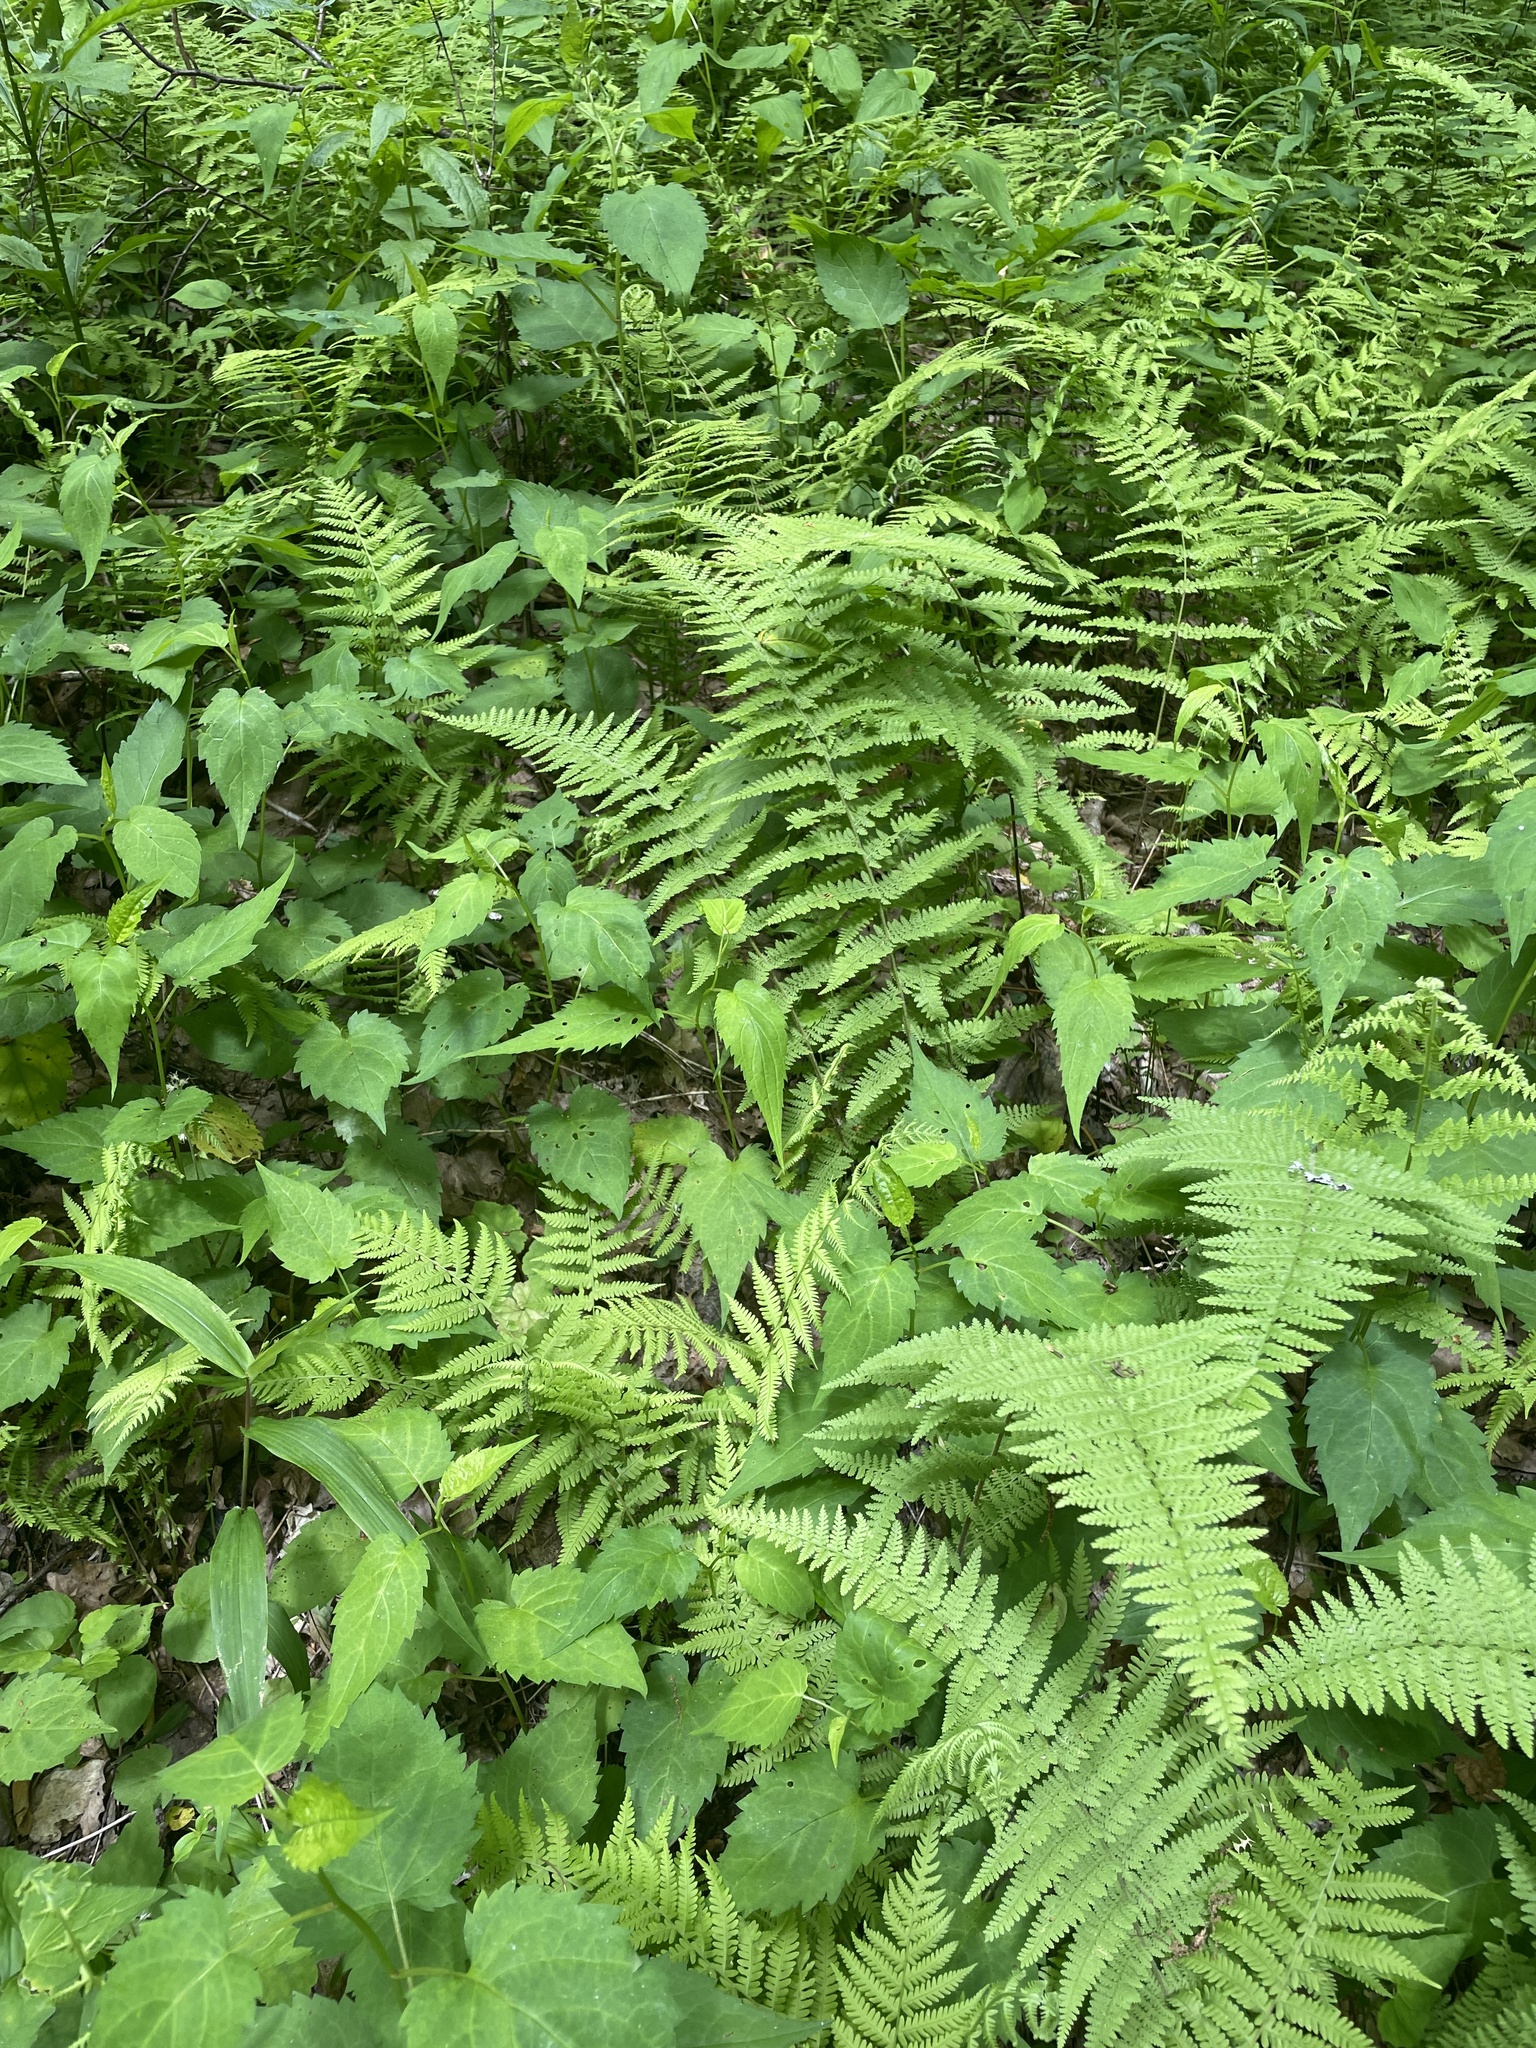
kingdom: Plantae
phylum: Tracheophyta
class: Polypodiopsida
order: Polypodiales
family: Athyriaceae
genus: Deparia
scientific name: Deparia acrostichoides
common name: Silver false spleenwort
